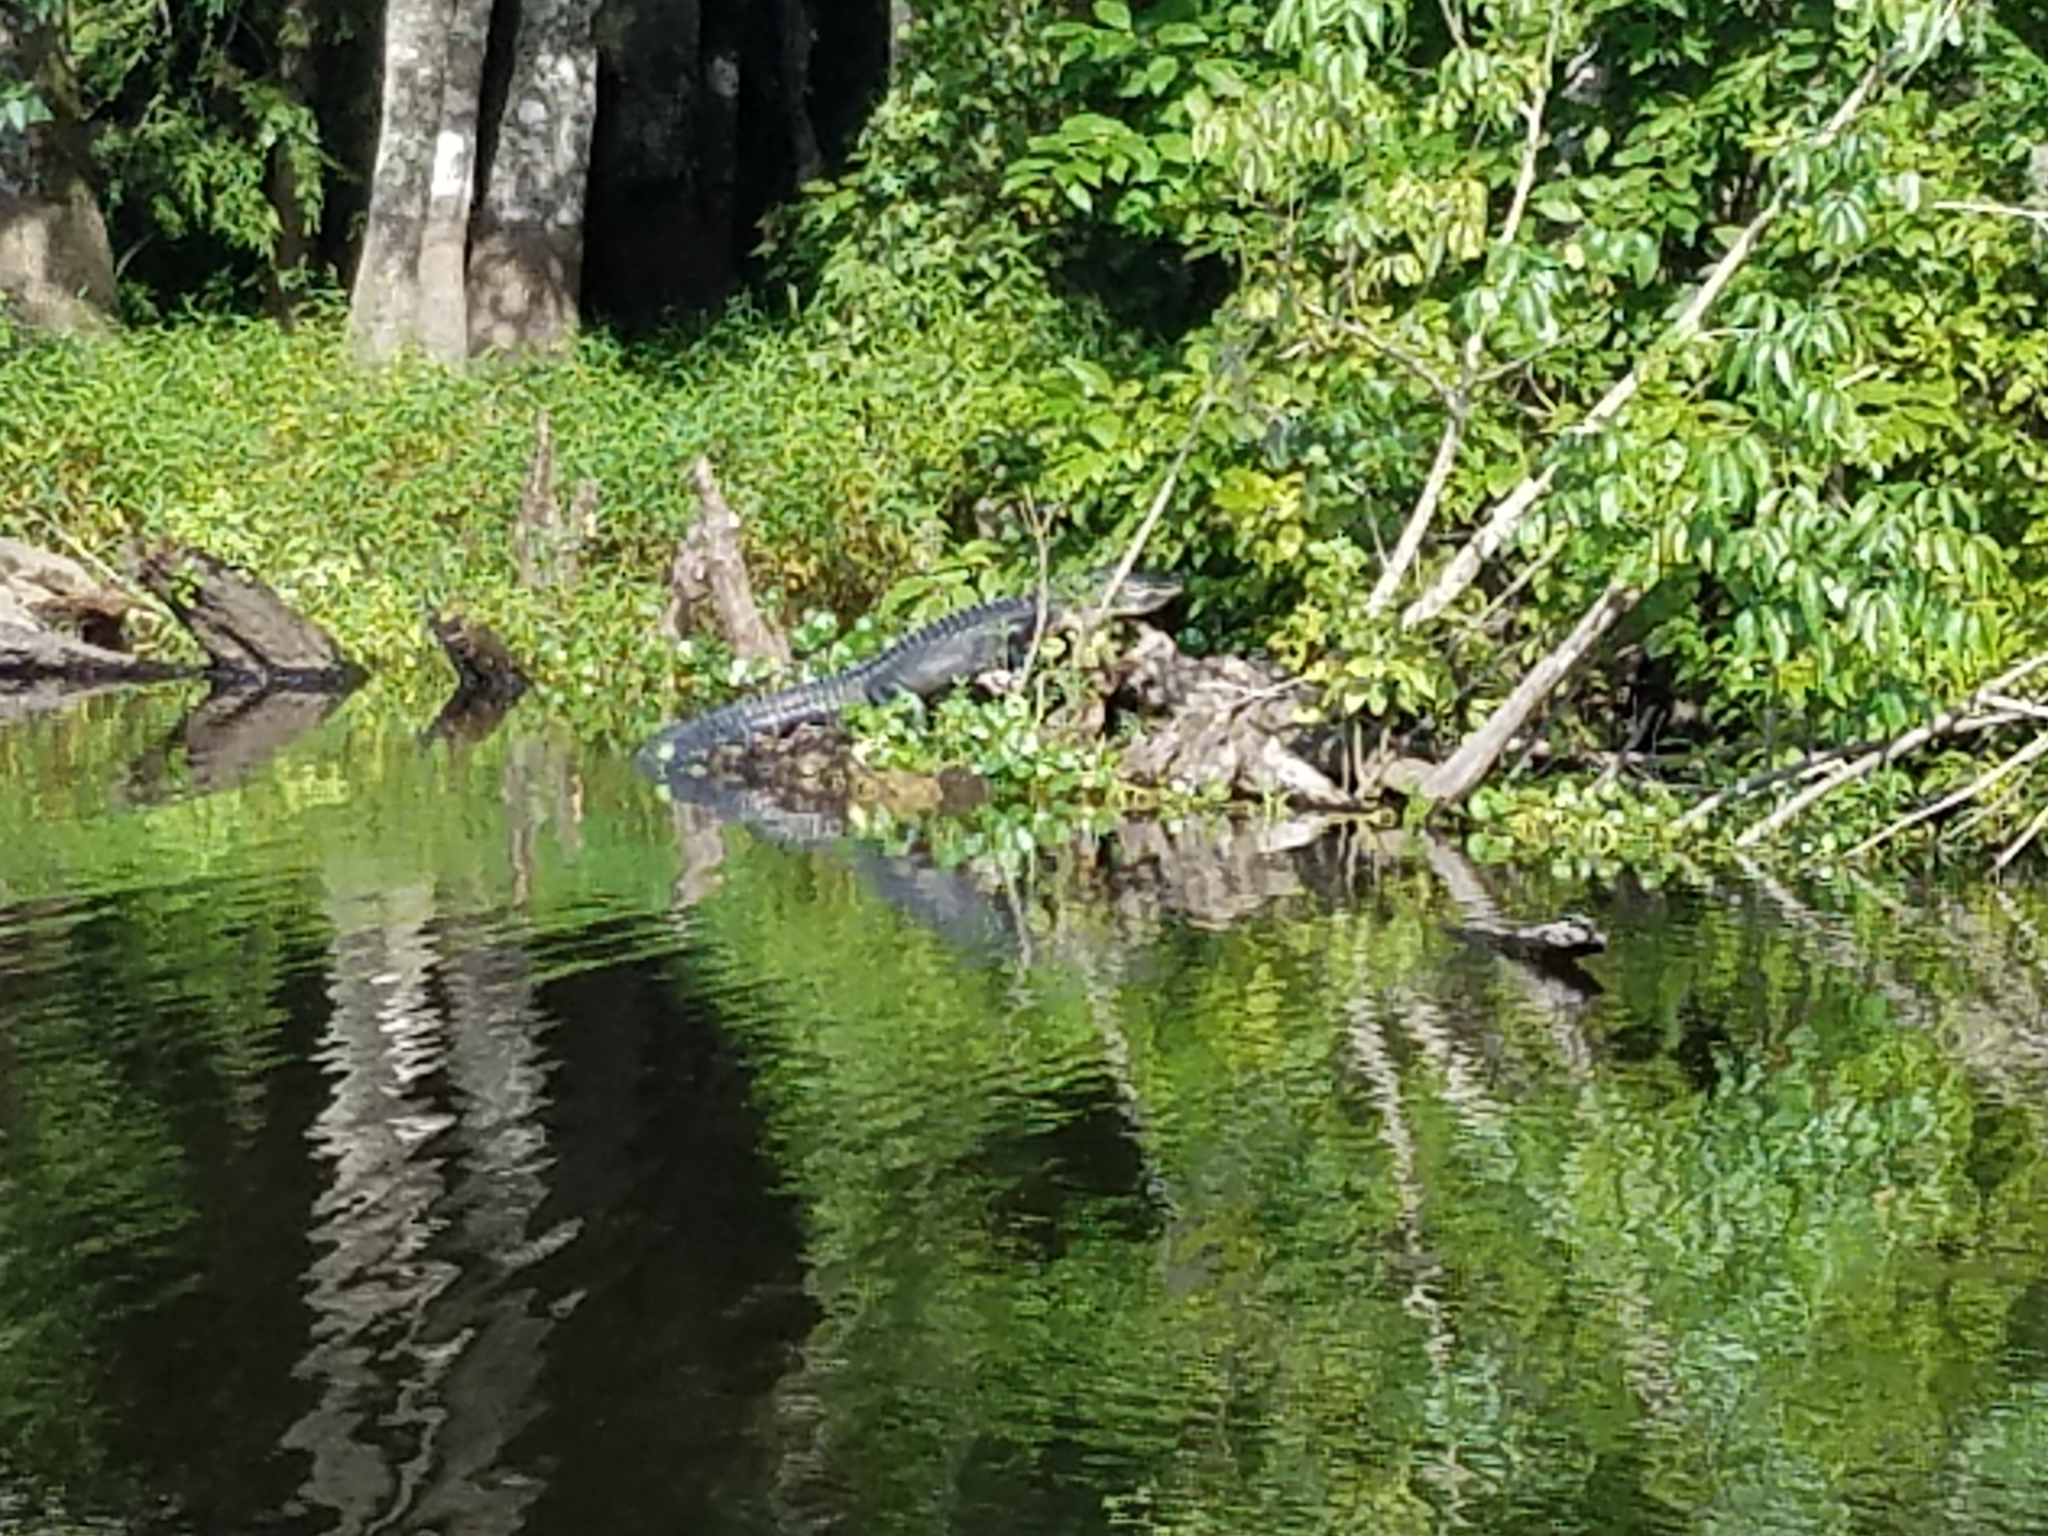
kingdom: Animalia
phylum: Chordata
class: Crocodylia
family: Alligatoridae
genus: Alligator
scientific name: Alligator mississippiensis
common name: American alligator
